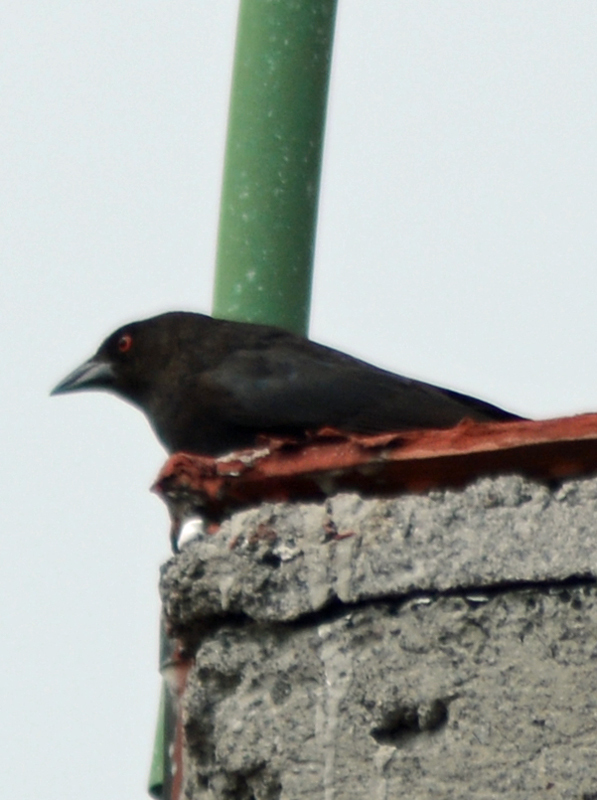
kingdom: Animalia
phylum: Chordata
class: Aves
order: Passeriformes
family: Icteridae
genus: Molothrus
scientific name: Molothrus aeneus
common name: Bronzed cowbird
